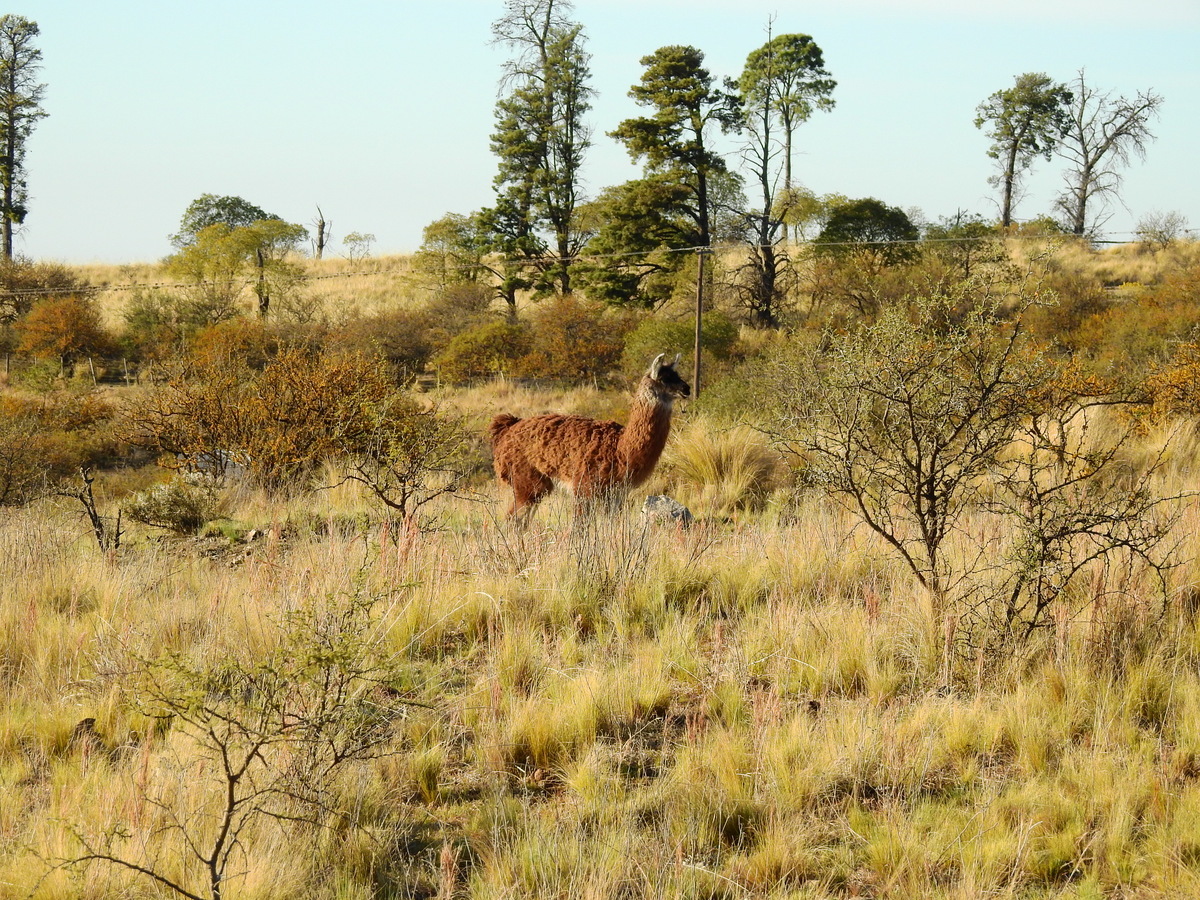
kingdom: Animalia
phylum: Chordata
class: Mammalia
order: Artiodactyla
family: Camelidae
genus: Lama
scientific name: Lama glama
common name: Llama
